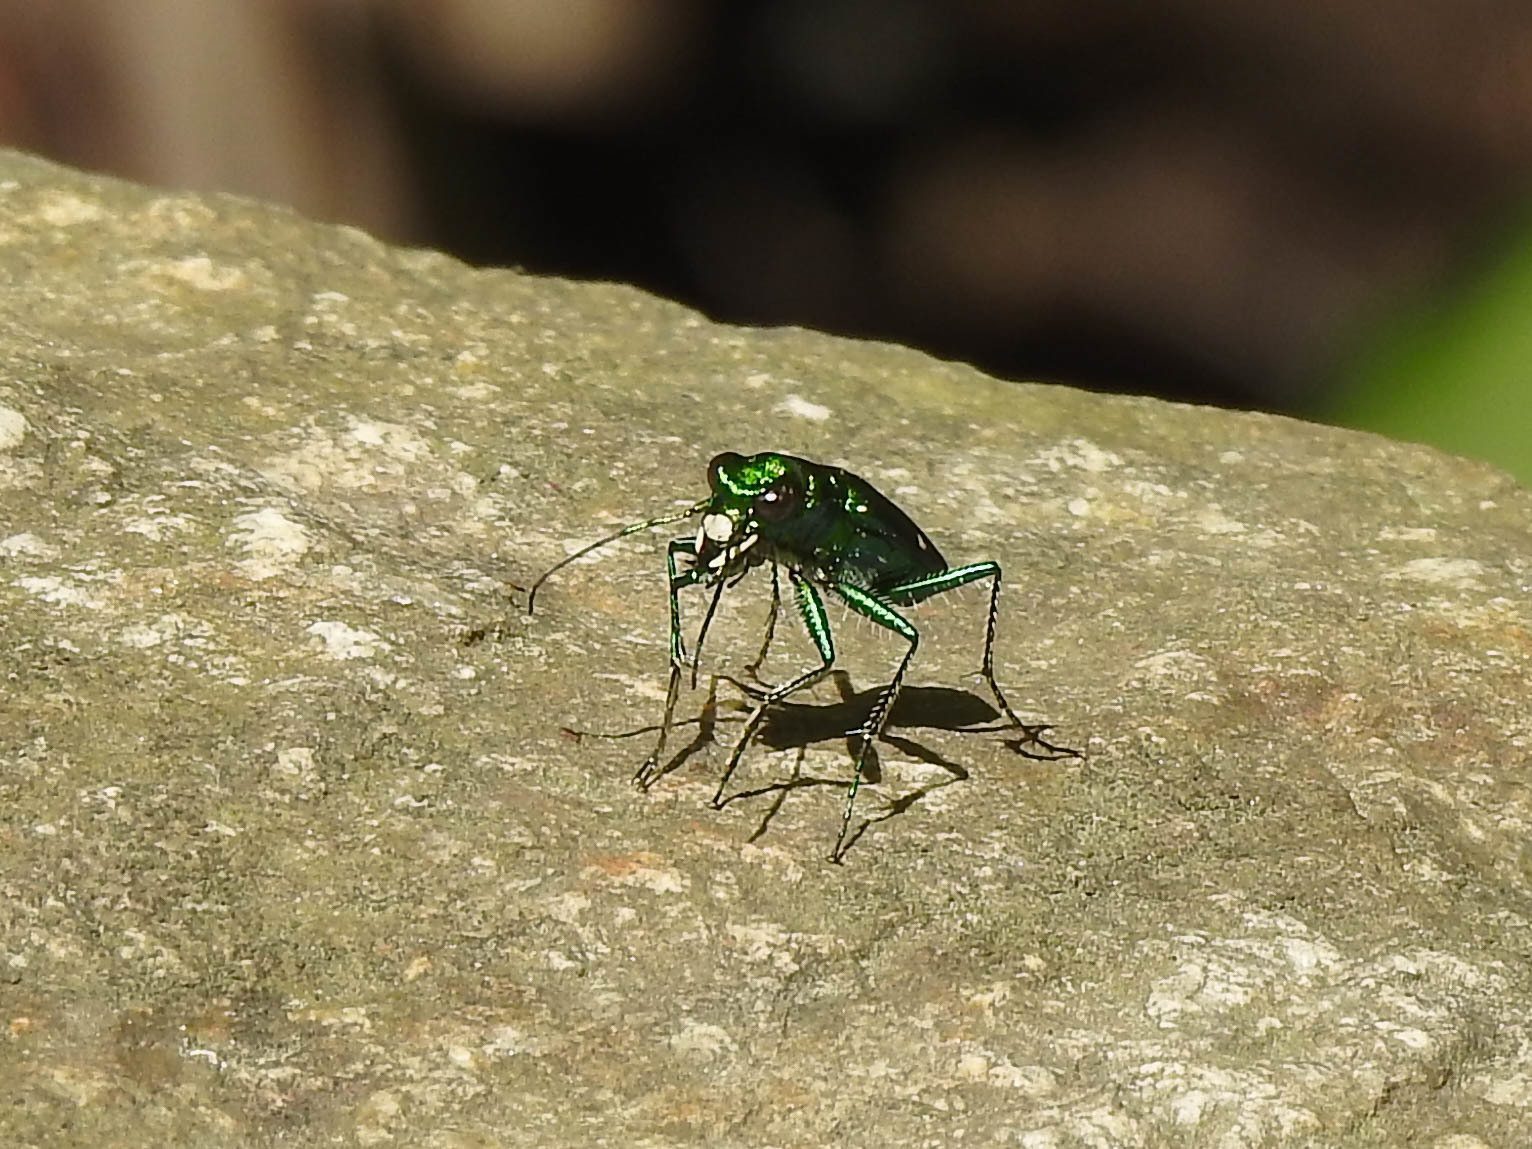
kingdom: Animalia
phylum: Arthropoda
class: Insecta
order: Coleoptera
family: Carabidae
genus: Cicindela
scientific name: Cicindela sexguttata
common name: Six-spotted tiger beetle
